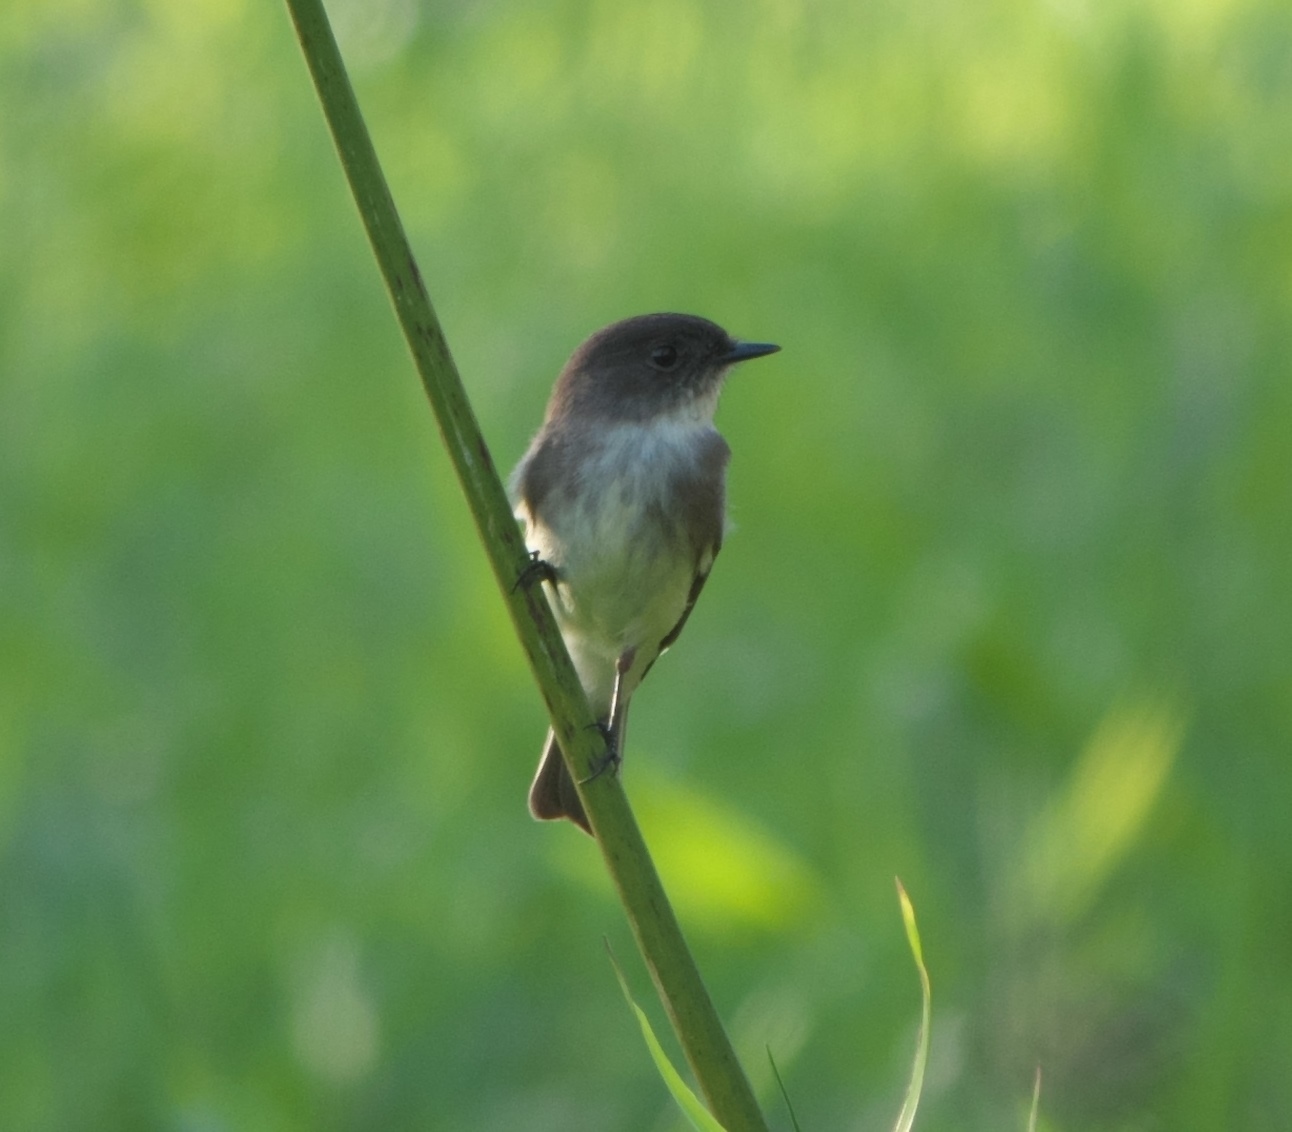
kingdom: Animalia
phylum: Chordata
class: Aves
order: Passeriformes
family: Tyrannidae
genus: Sayornis
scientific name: Sayornis phoebe
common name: Eastern phoebe
